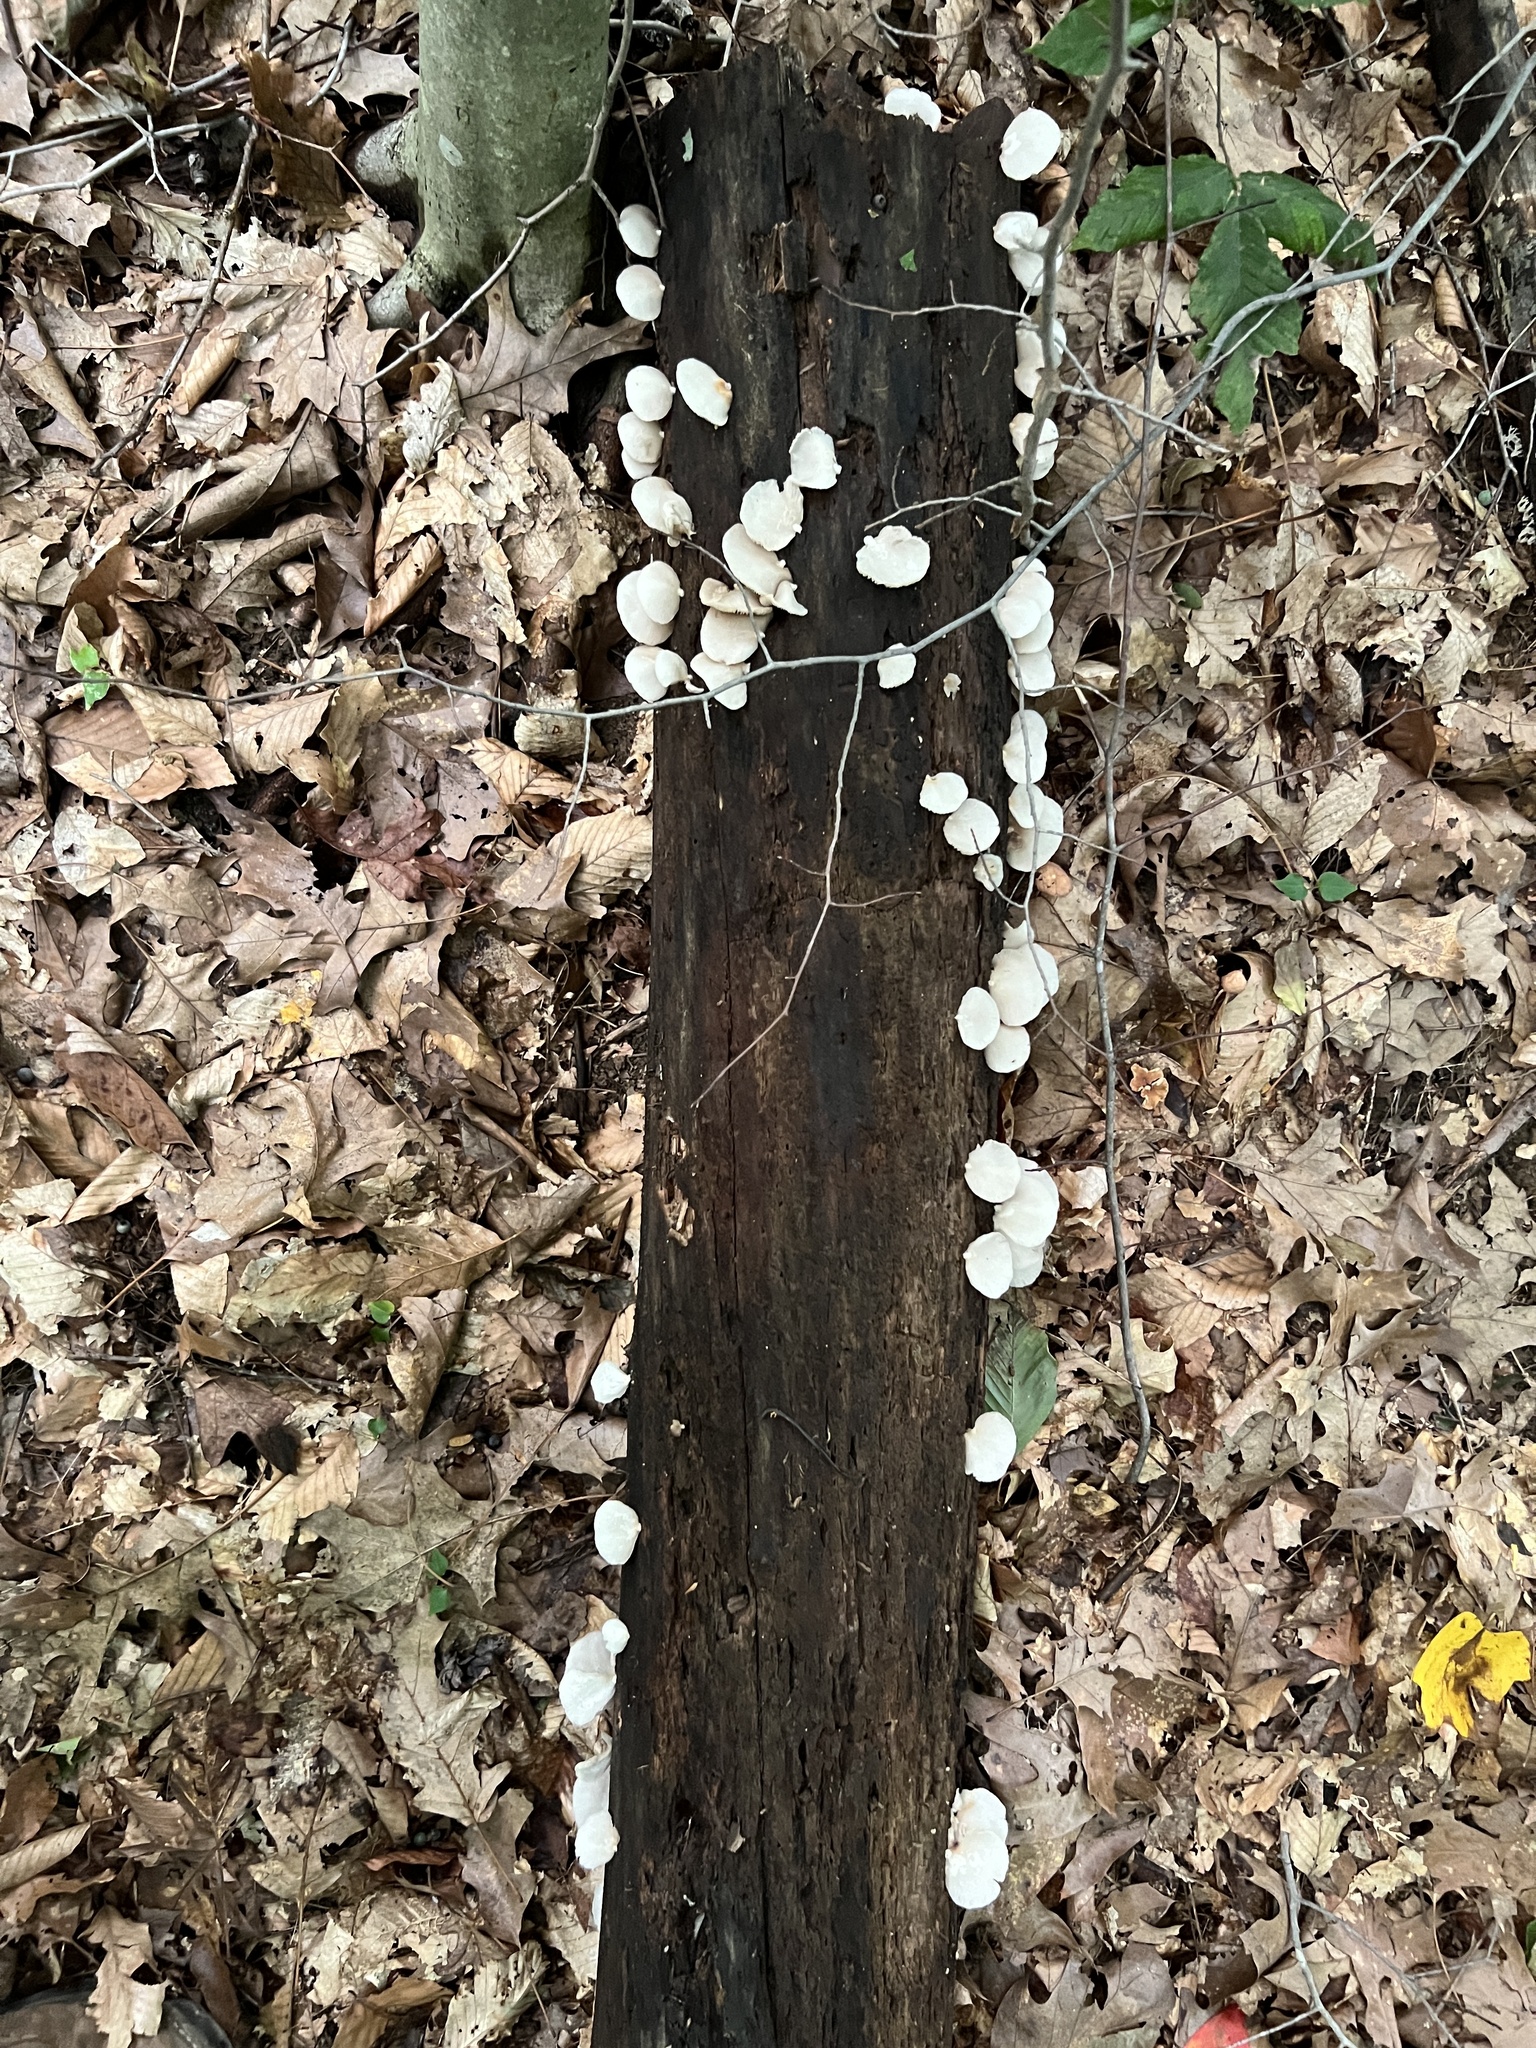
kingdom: Fungi
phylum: Basidiomycota
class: Agaricomycetes
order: Agaricales
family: Crepidotaceae
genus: Crepidotus
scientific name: Crepidotus applanatus
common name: Flat crep
